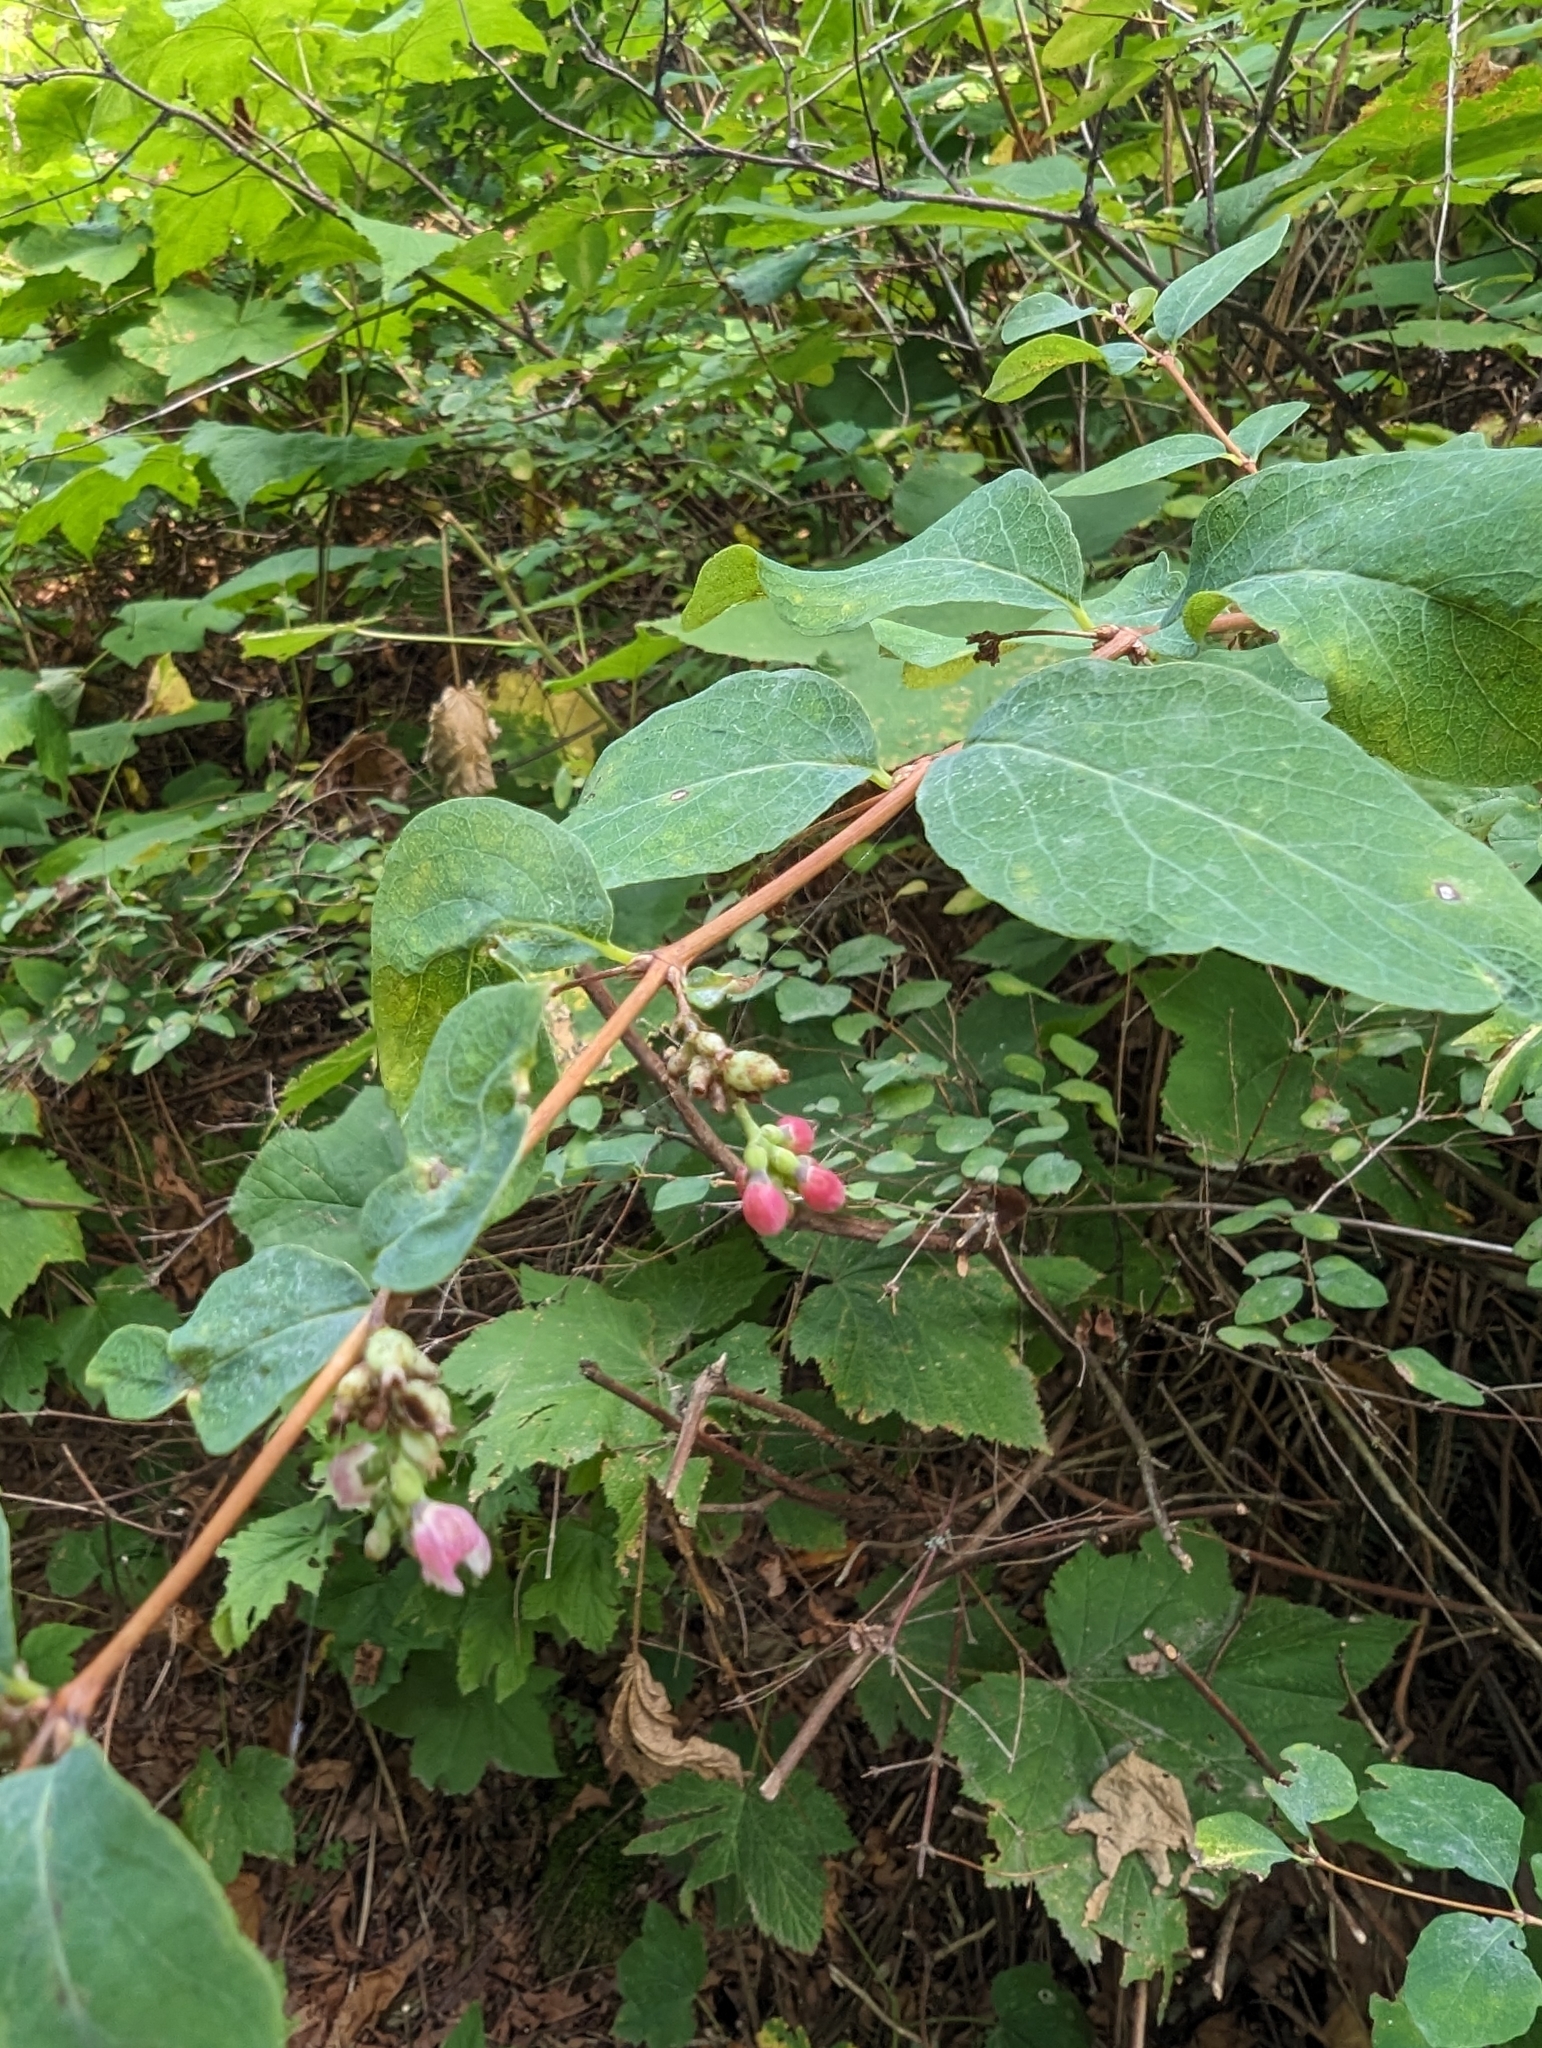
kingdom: Plantae
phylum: Tracheophyta
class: Magnoliopsida
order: Dipsacales
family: Caprifoliaceae
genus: Symphoricarpos
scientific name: Symphoricarpos albus
